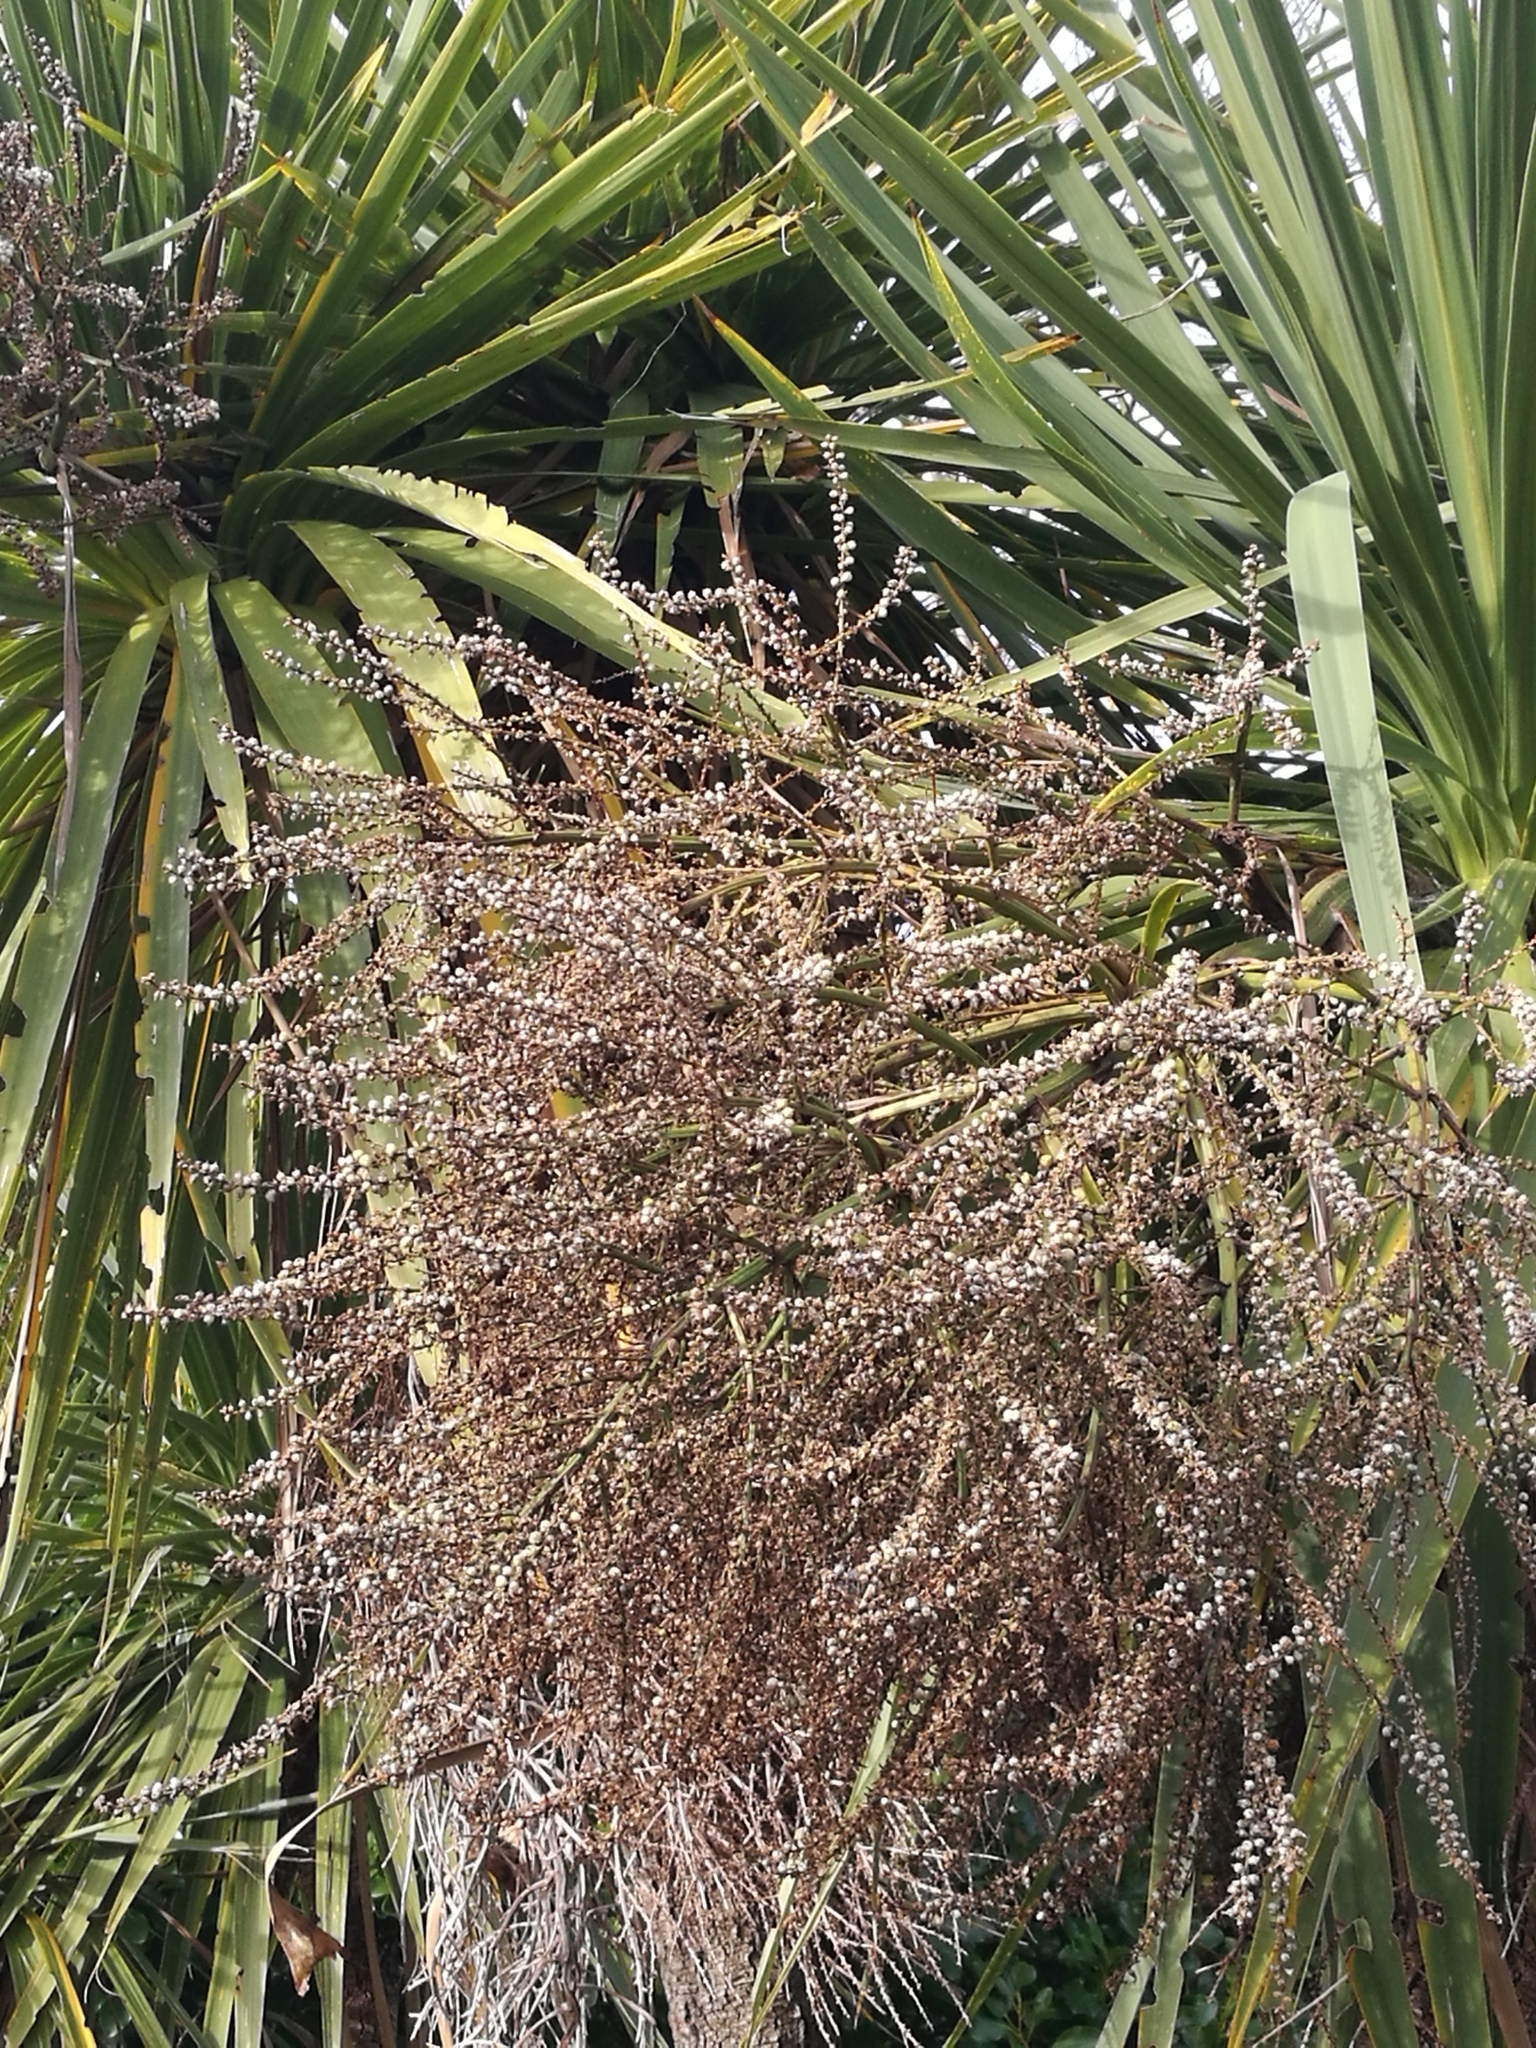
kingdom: Plantae
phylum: Tracheophyta
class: Liliopsida
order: Asparagales
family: Asparagaceae
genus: Cordyline
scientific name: Cordyline australis
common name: Cabbage-palm
